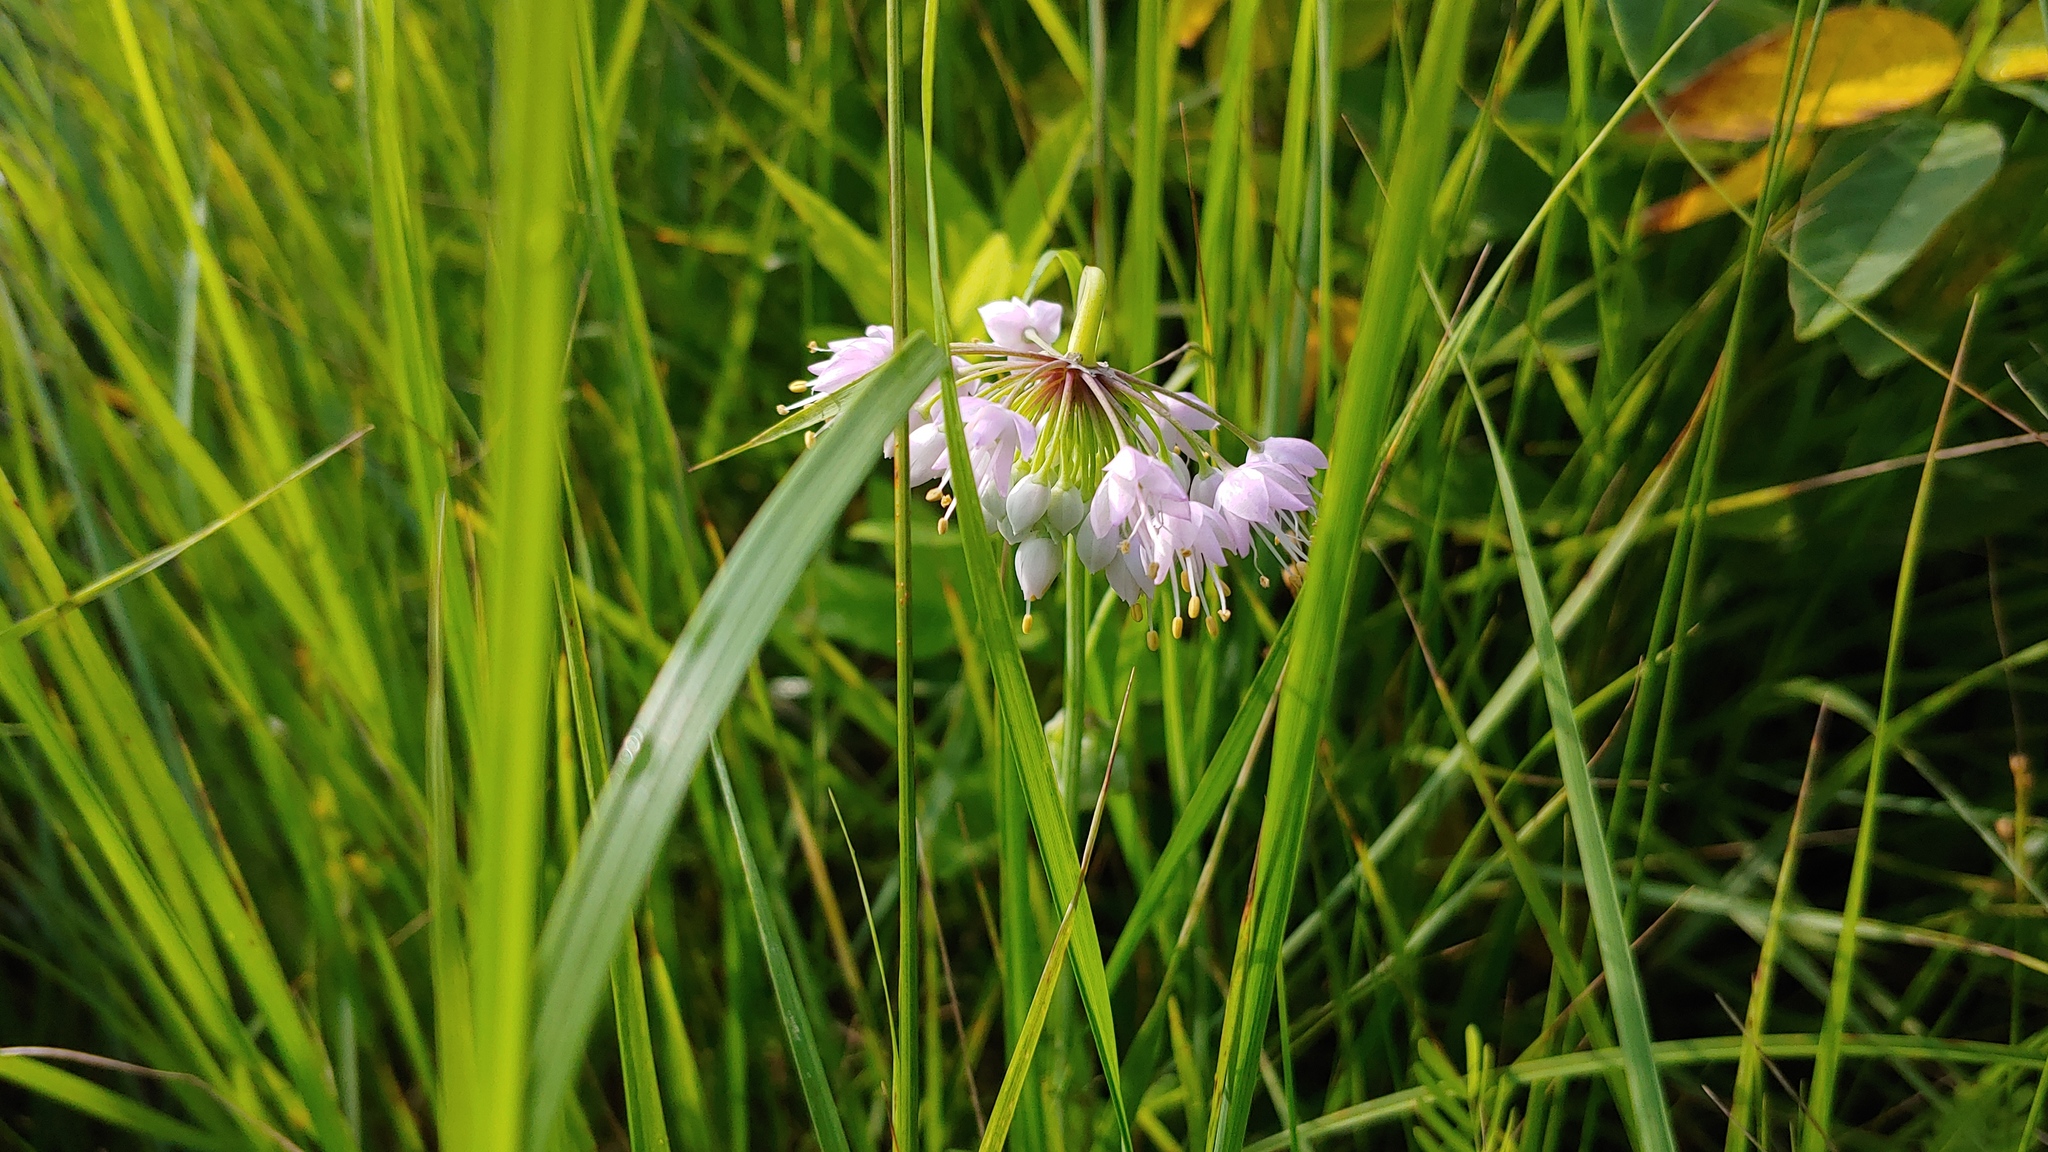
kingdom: Plantae
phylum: Tracheophyta
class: Liliopsida
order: Asparagales
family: Amaryllidaceae
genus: Allium
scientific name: Allium cernuum
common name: Nodding onion
